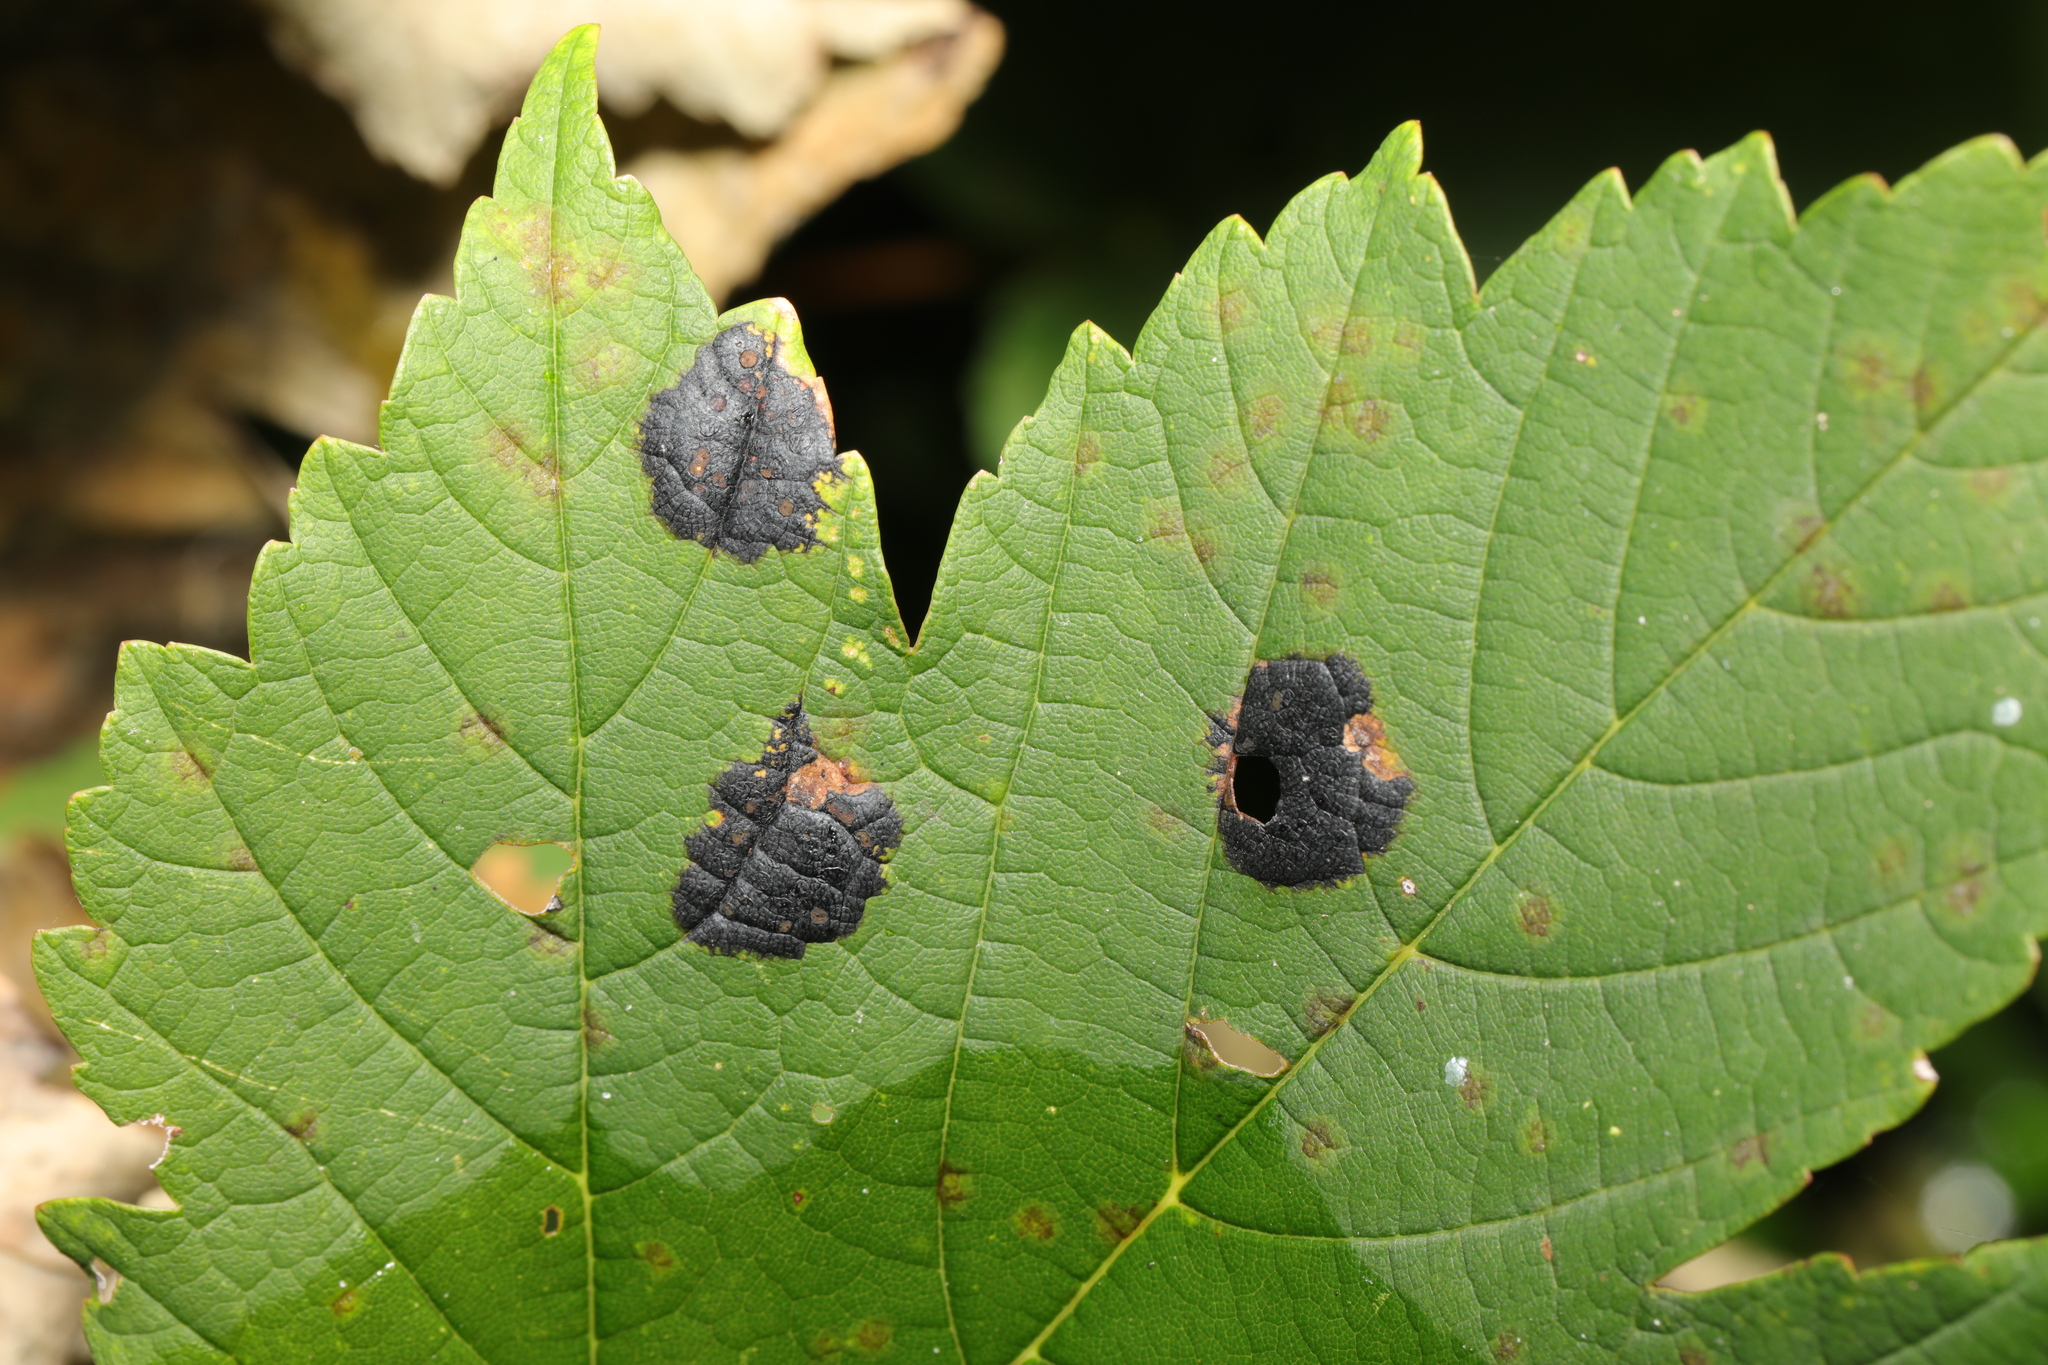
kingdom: Fungi
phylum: Ascomycota
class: Leotiomycetes
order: Rhytismatales
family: Rhytismataceae
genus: Rhytisma
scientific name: Rhytisma acerinum
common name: European tar spot
